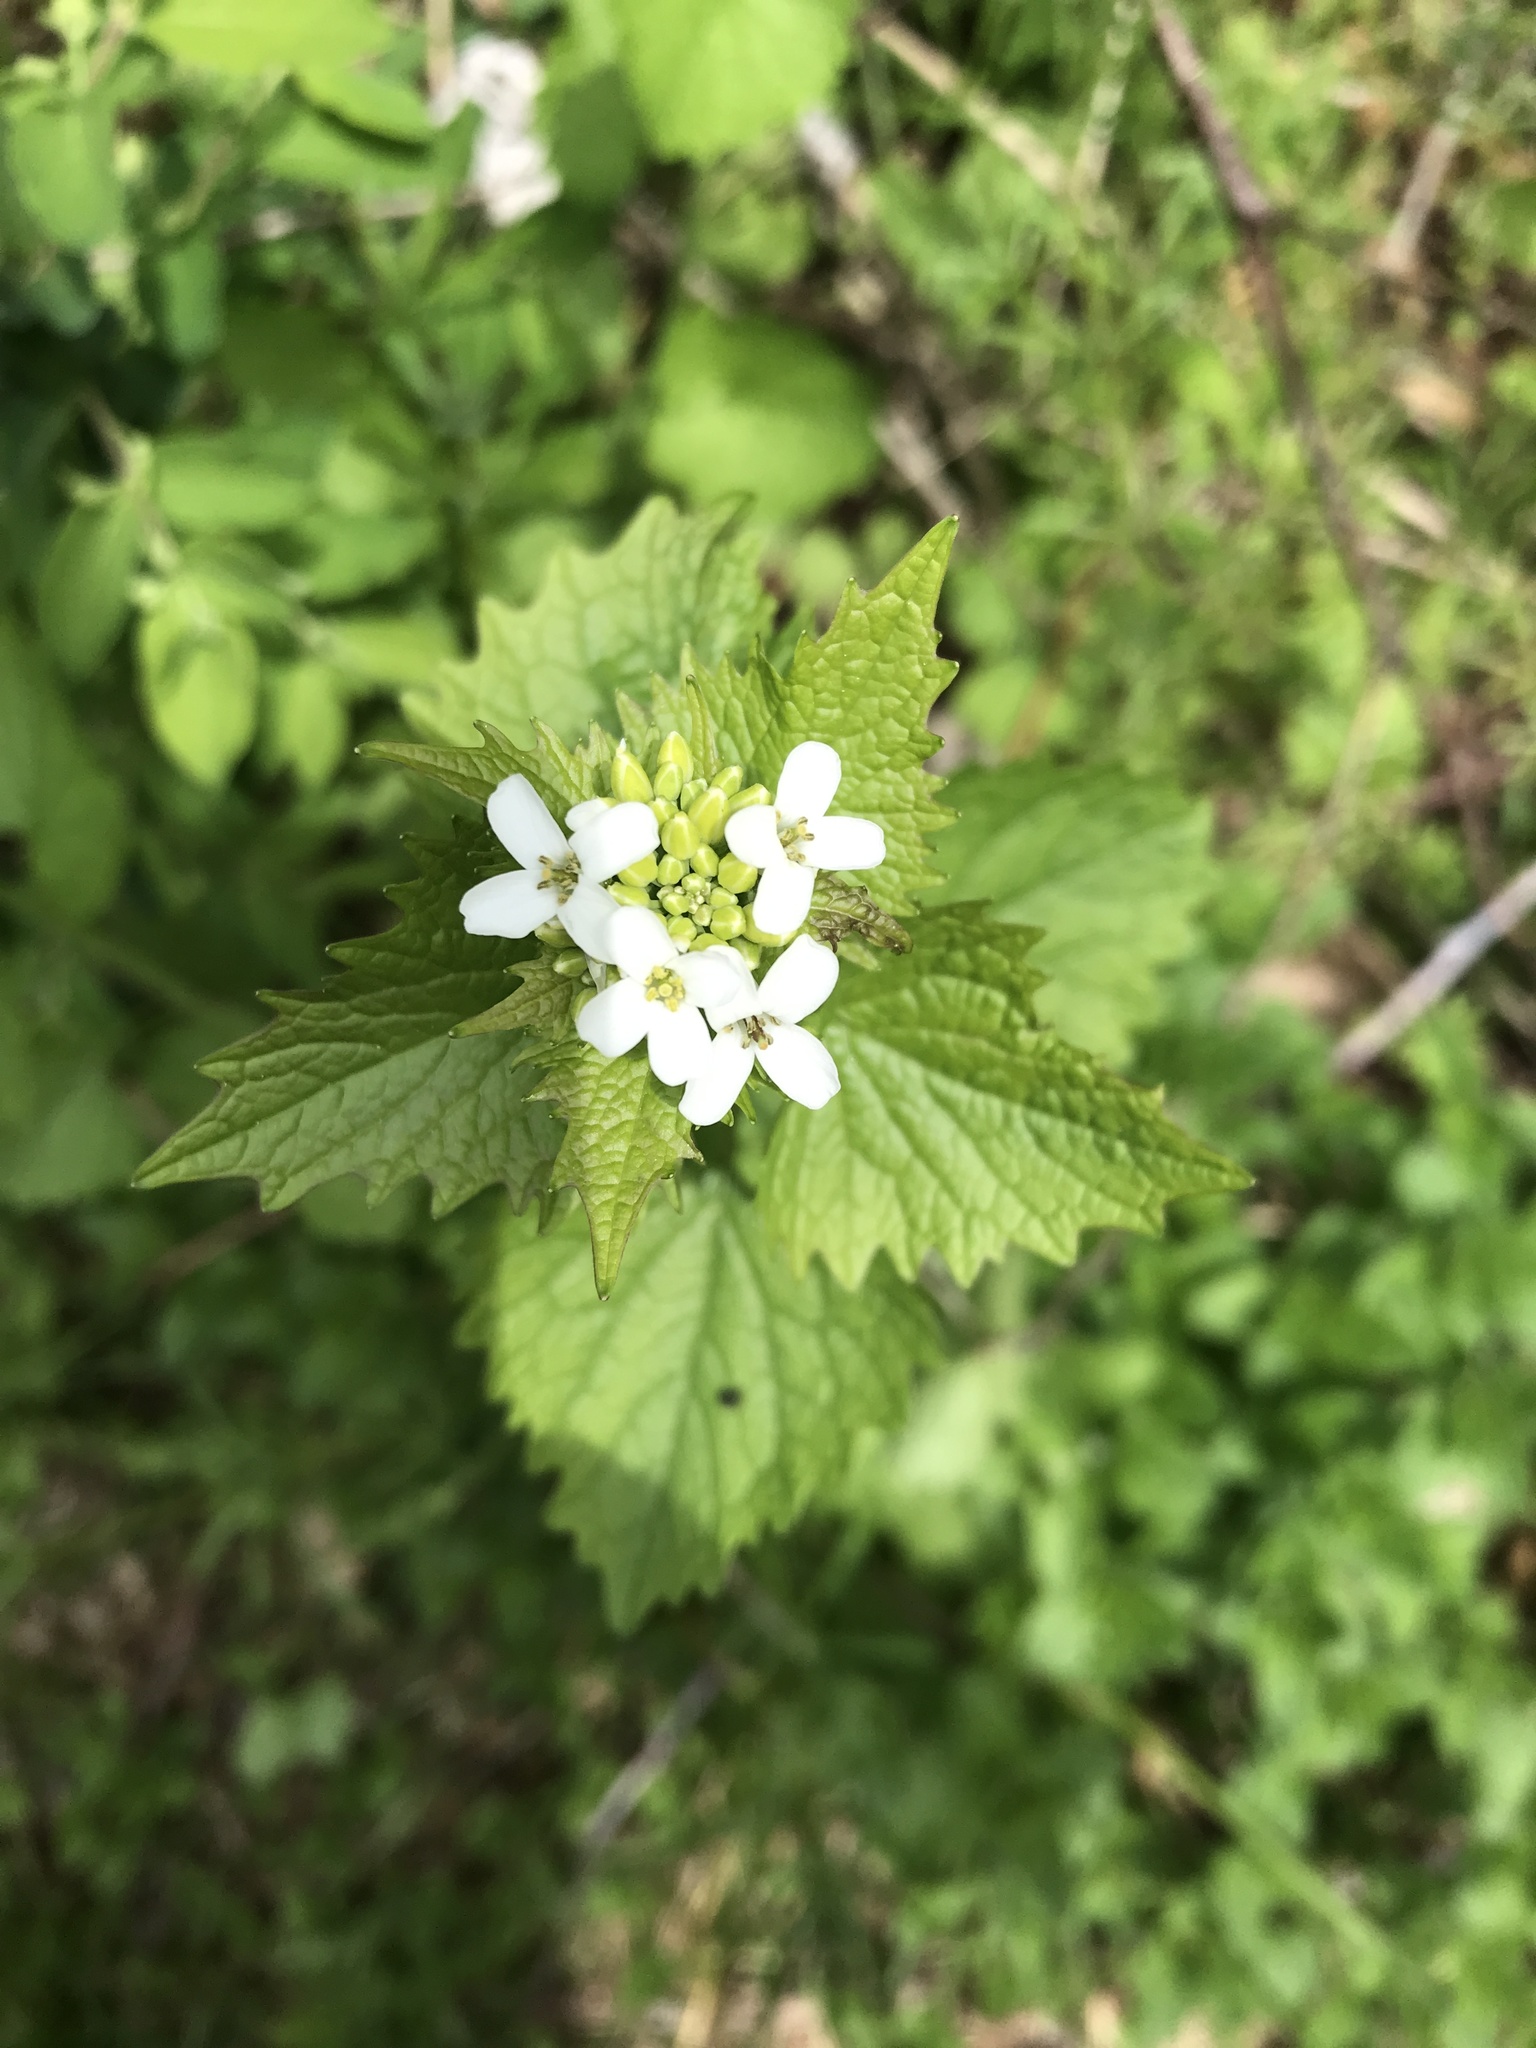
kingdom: Plantae
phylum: Tracheophyta
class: Magnoliopsida
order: Brassicales
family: Brassicaceae
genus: Alliaria
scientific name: Alliaria petiolata
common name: Garlic mustard
